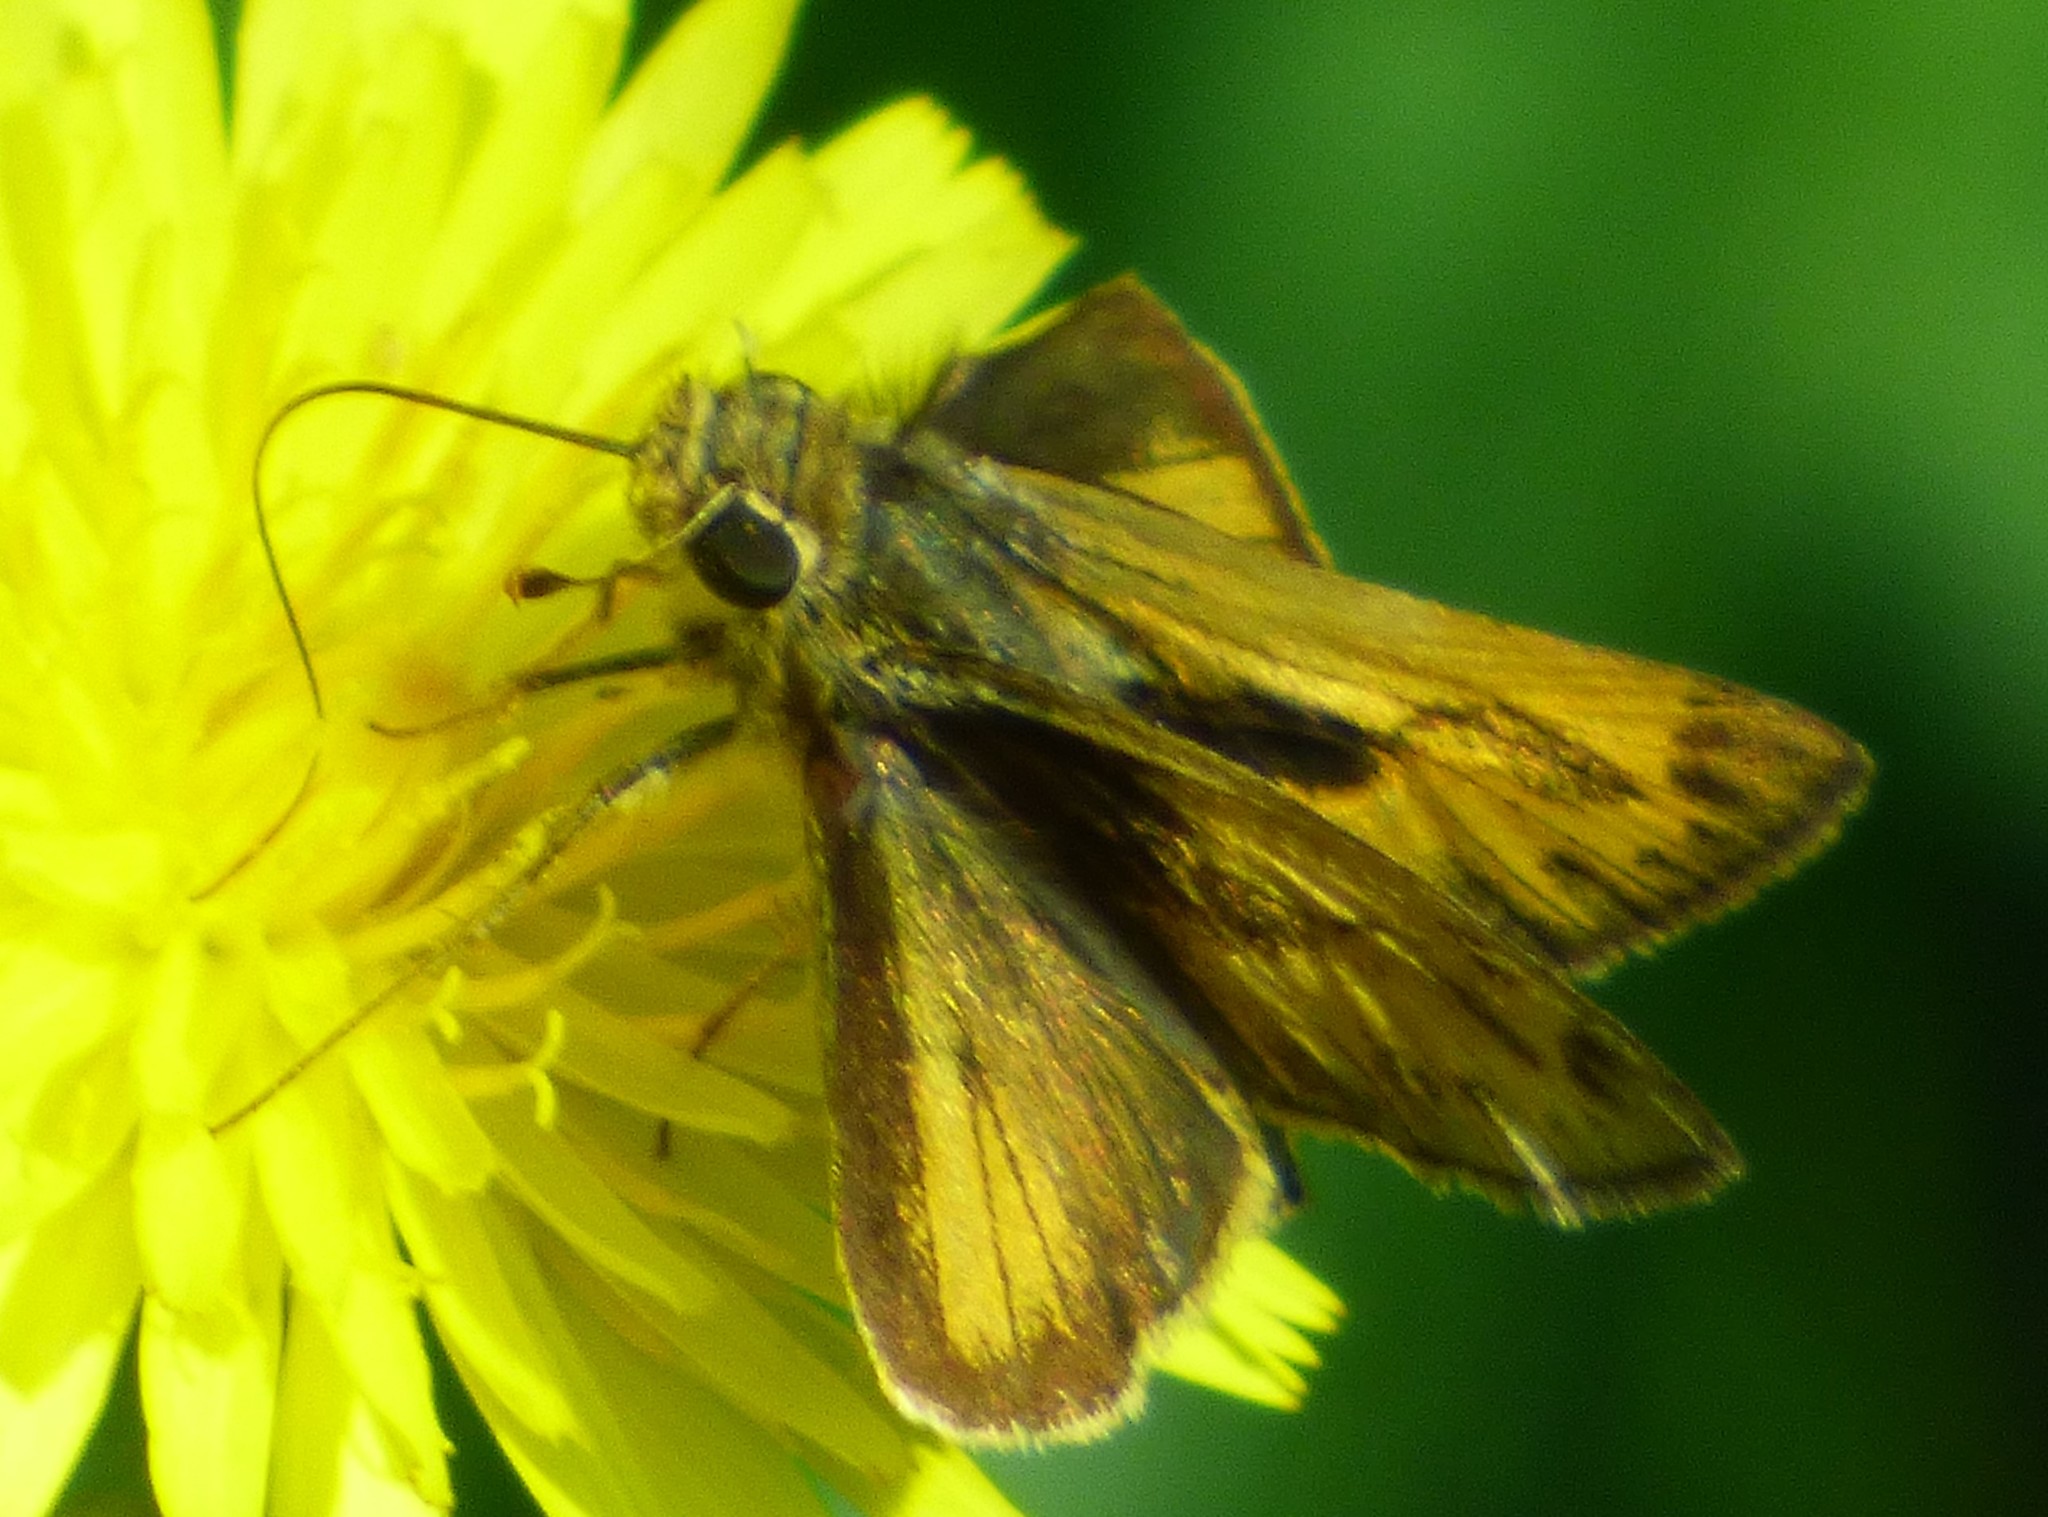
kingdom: Animalia
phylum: Arthropoda
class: Insecta
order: Lepidoptera
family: Hesperiidae
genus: Polites
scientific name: Polites vibex
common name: Whirlabout
